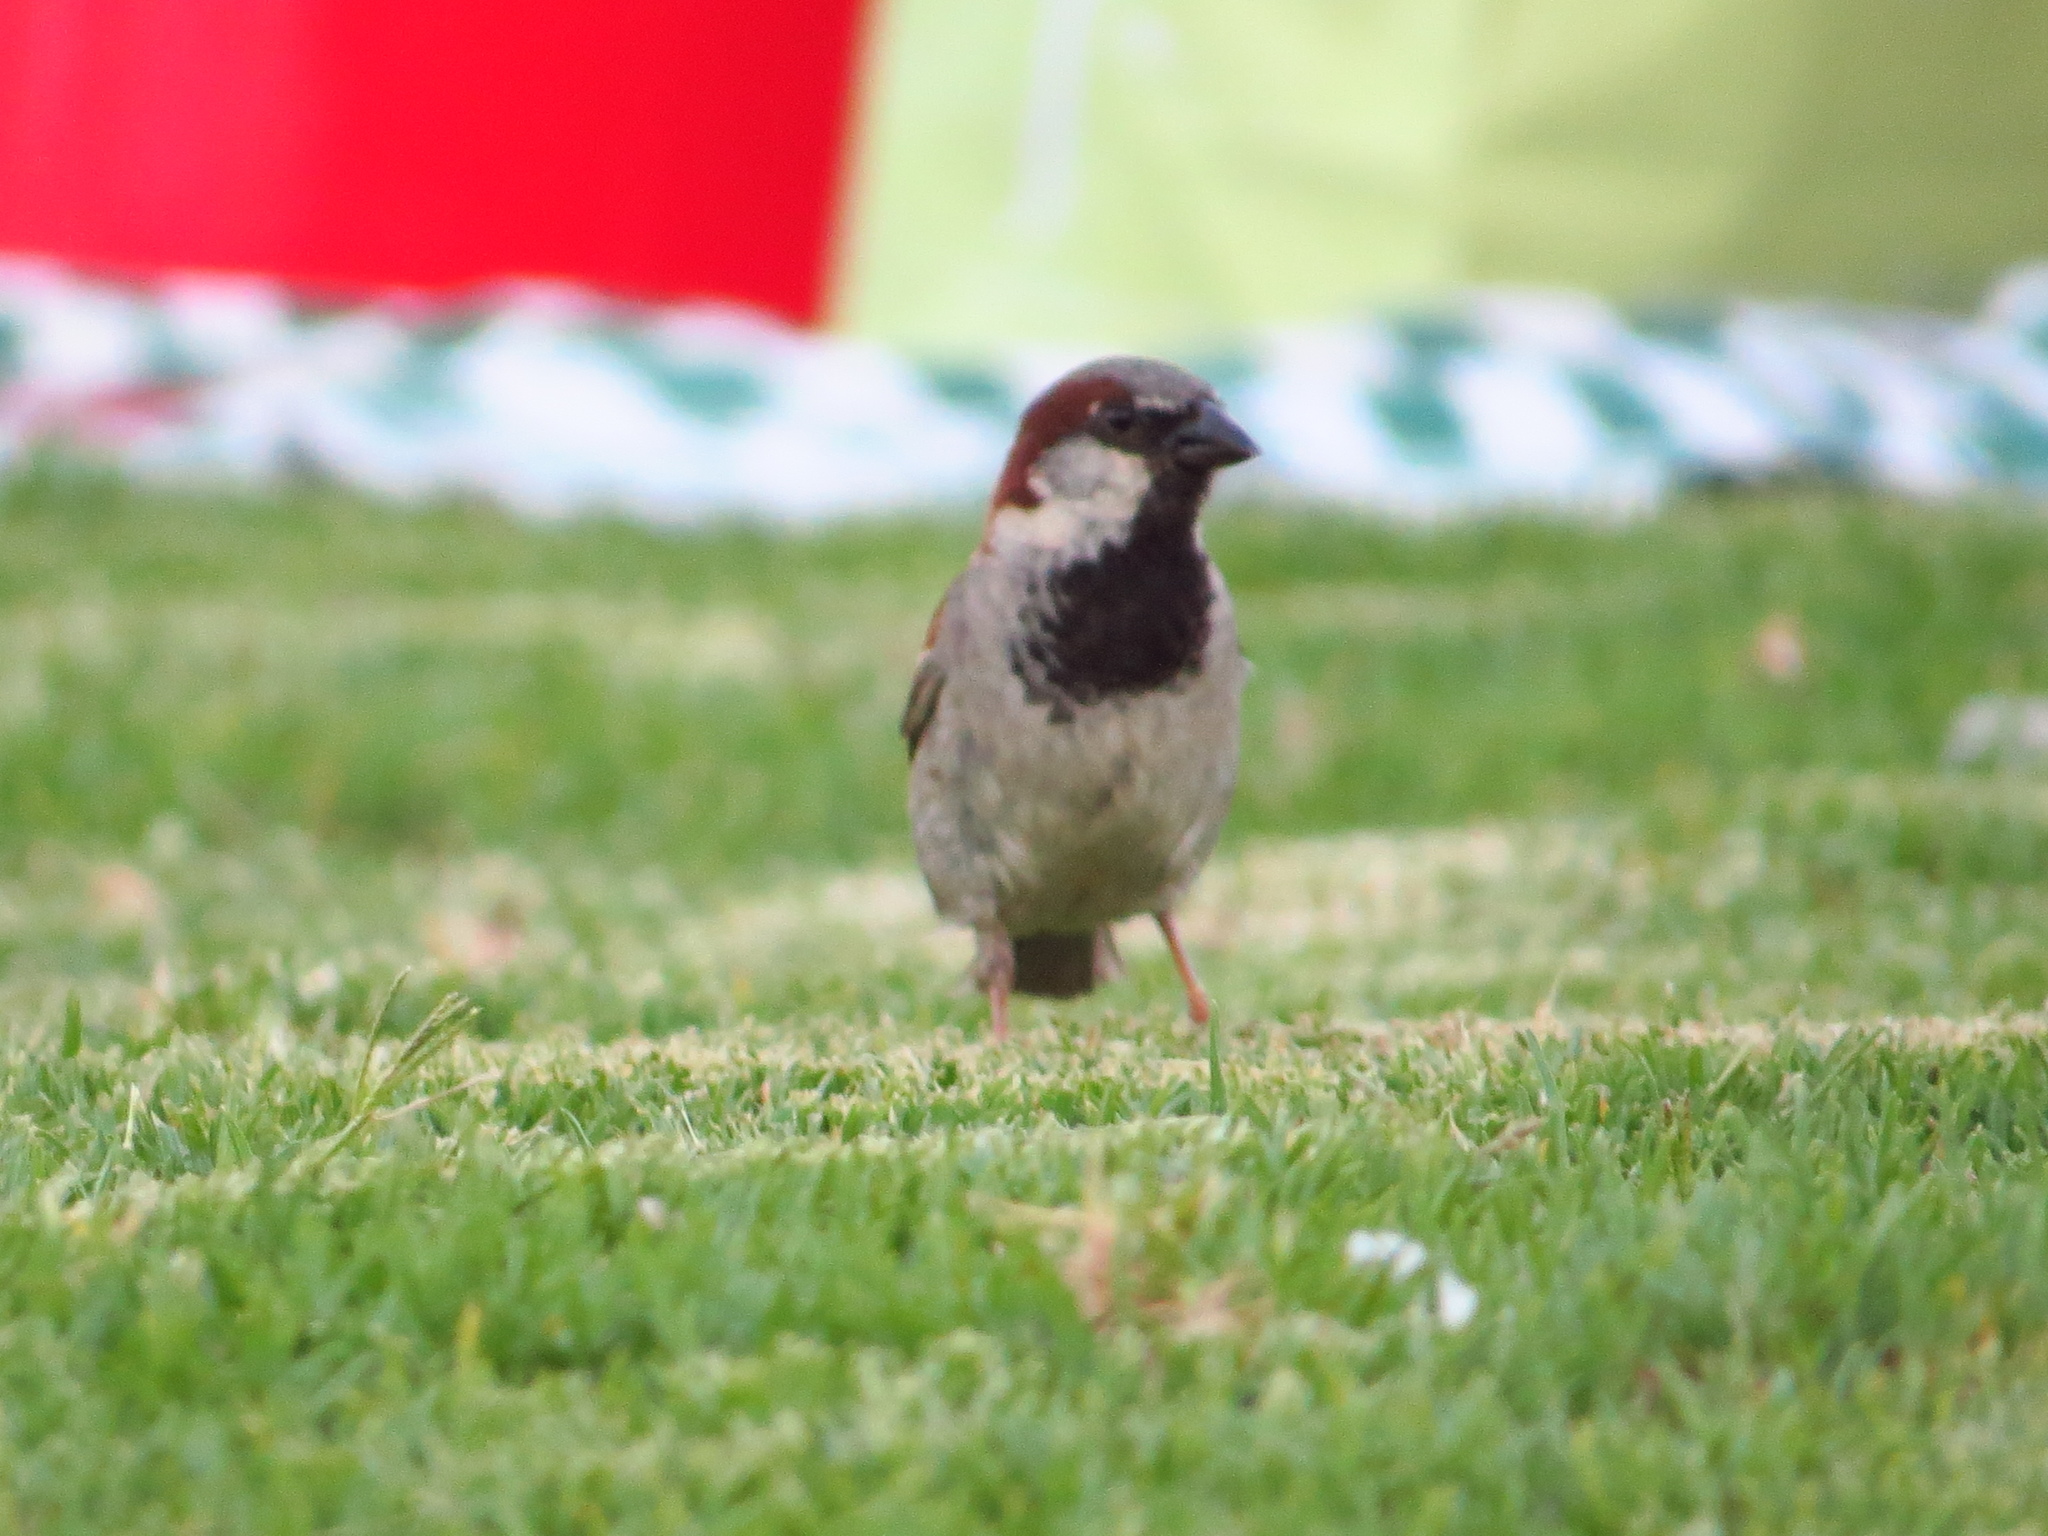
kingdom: Animalia
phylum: Chordata
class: Aves
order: Passeriformes
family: Passeridae
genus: Passer
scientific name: Passer domesticus
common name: House sparrow
